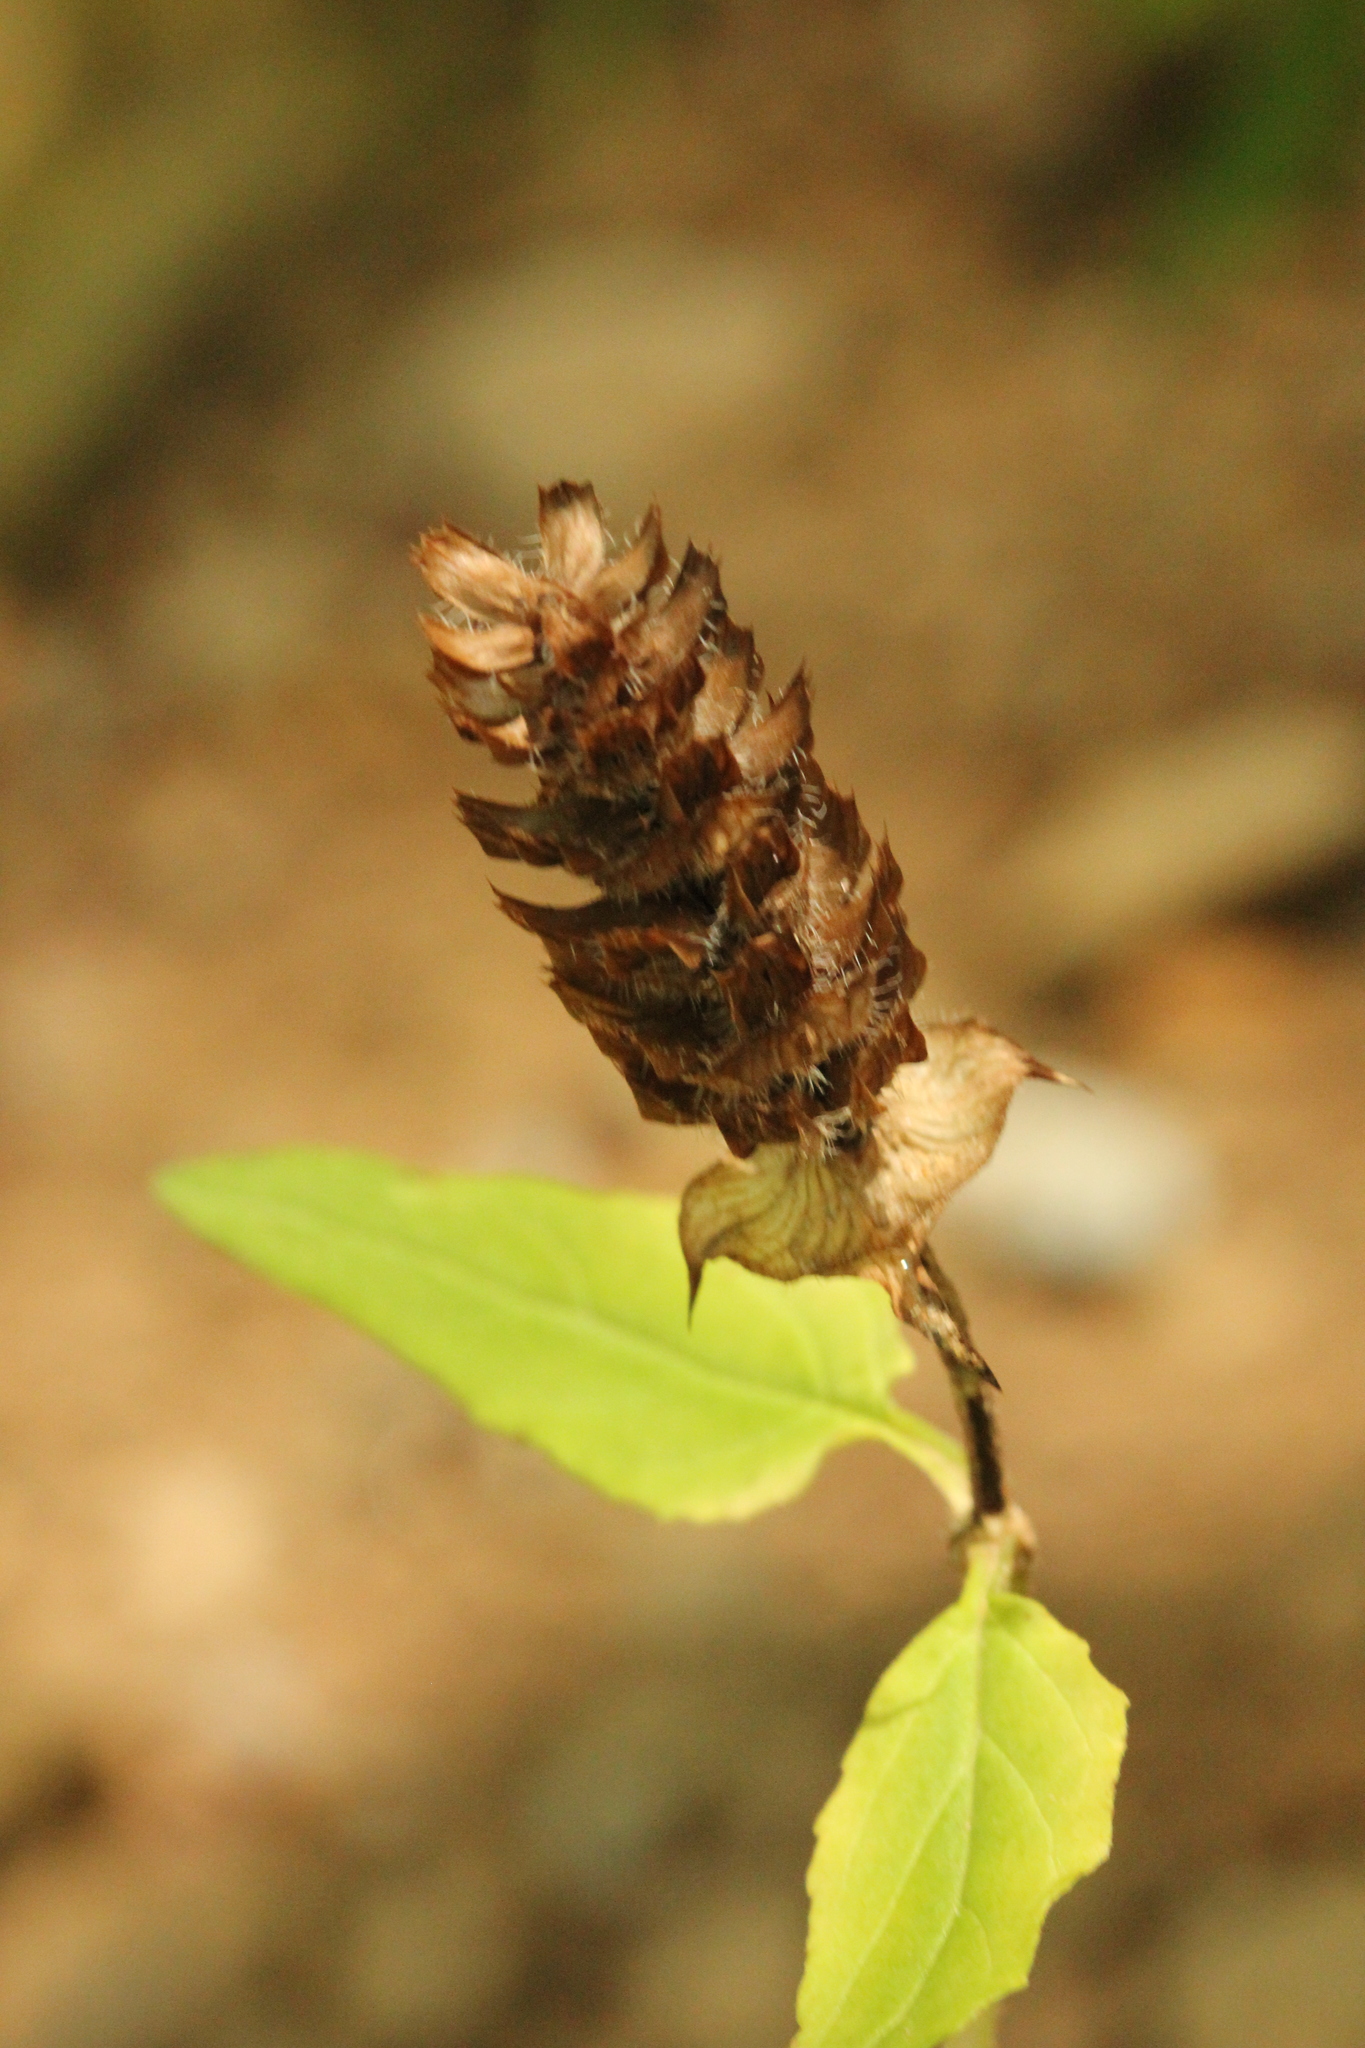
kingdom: Plantae
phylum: Tracheophyta
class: Magnoliopsida
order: Lamiales
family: Lamiaceae
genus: Prunella
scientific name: Prunella vulgaris
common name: Heal-all
